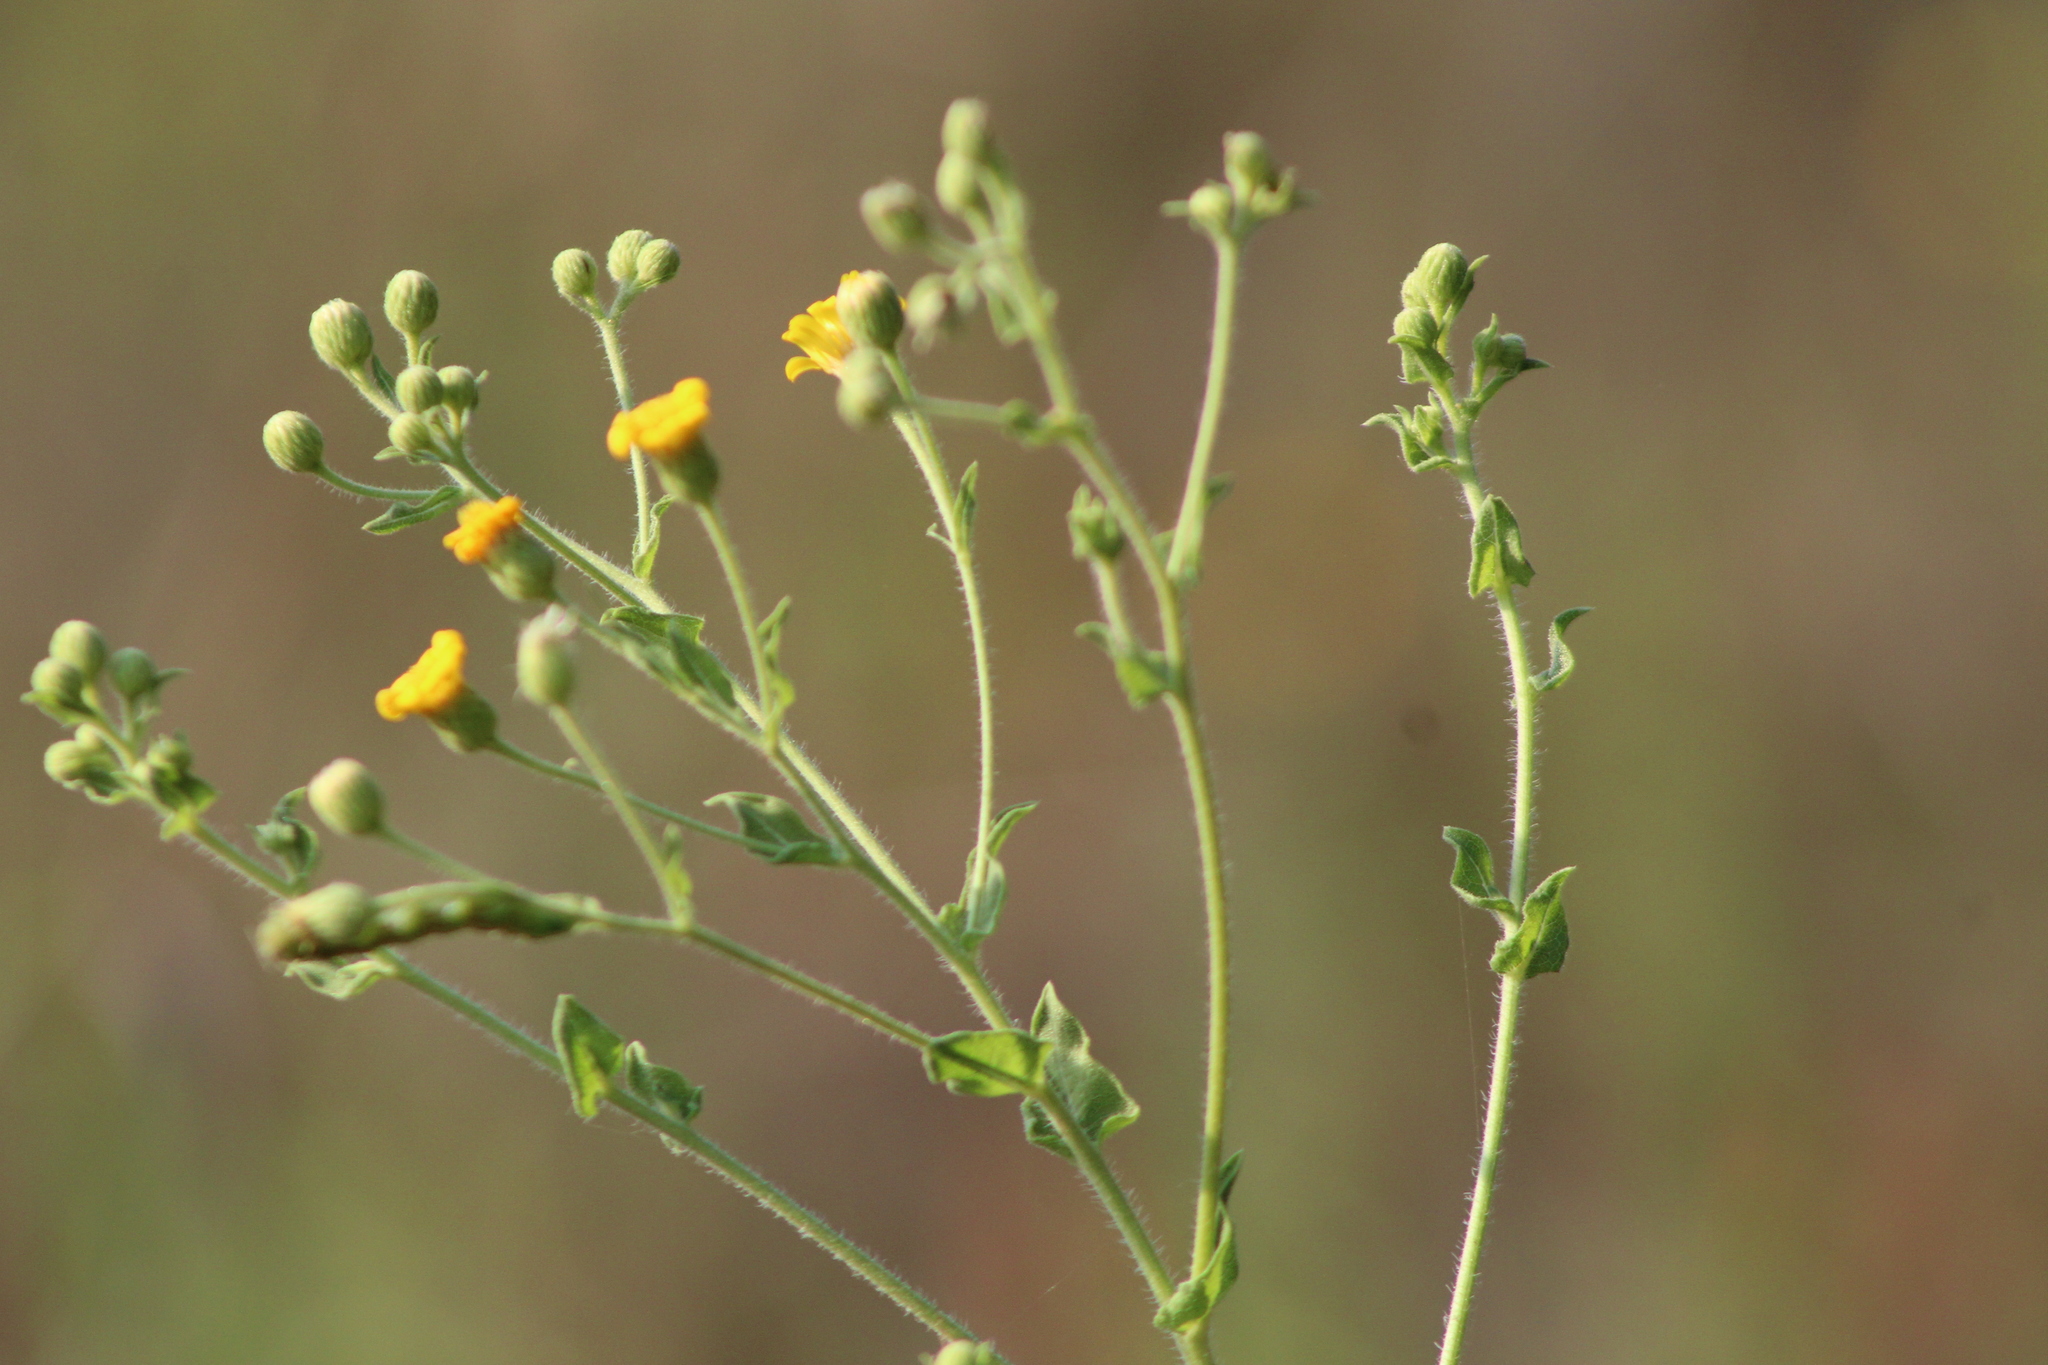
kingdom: Plantae
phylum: Tracheophyta
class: Magnoliopsida
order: Asterales
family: Asteraceae
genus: Heterotheca
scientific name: Heterotheca subaxillaris
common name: Camphorweed
